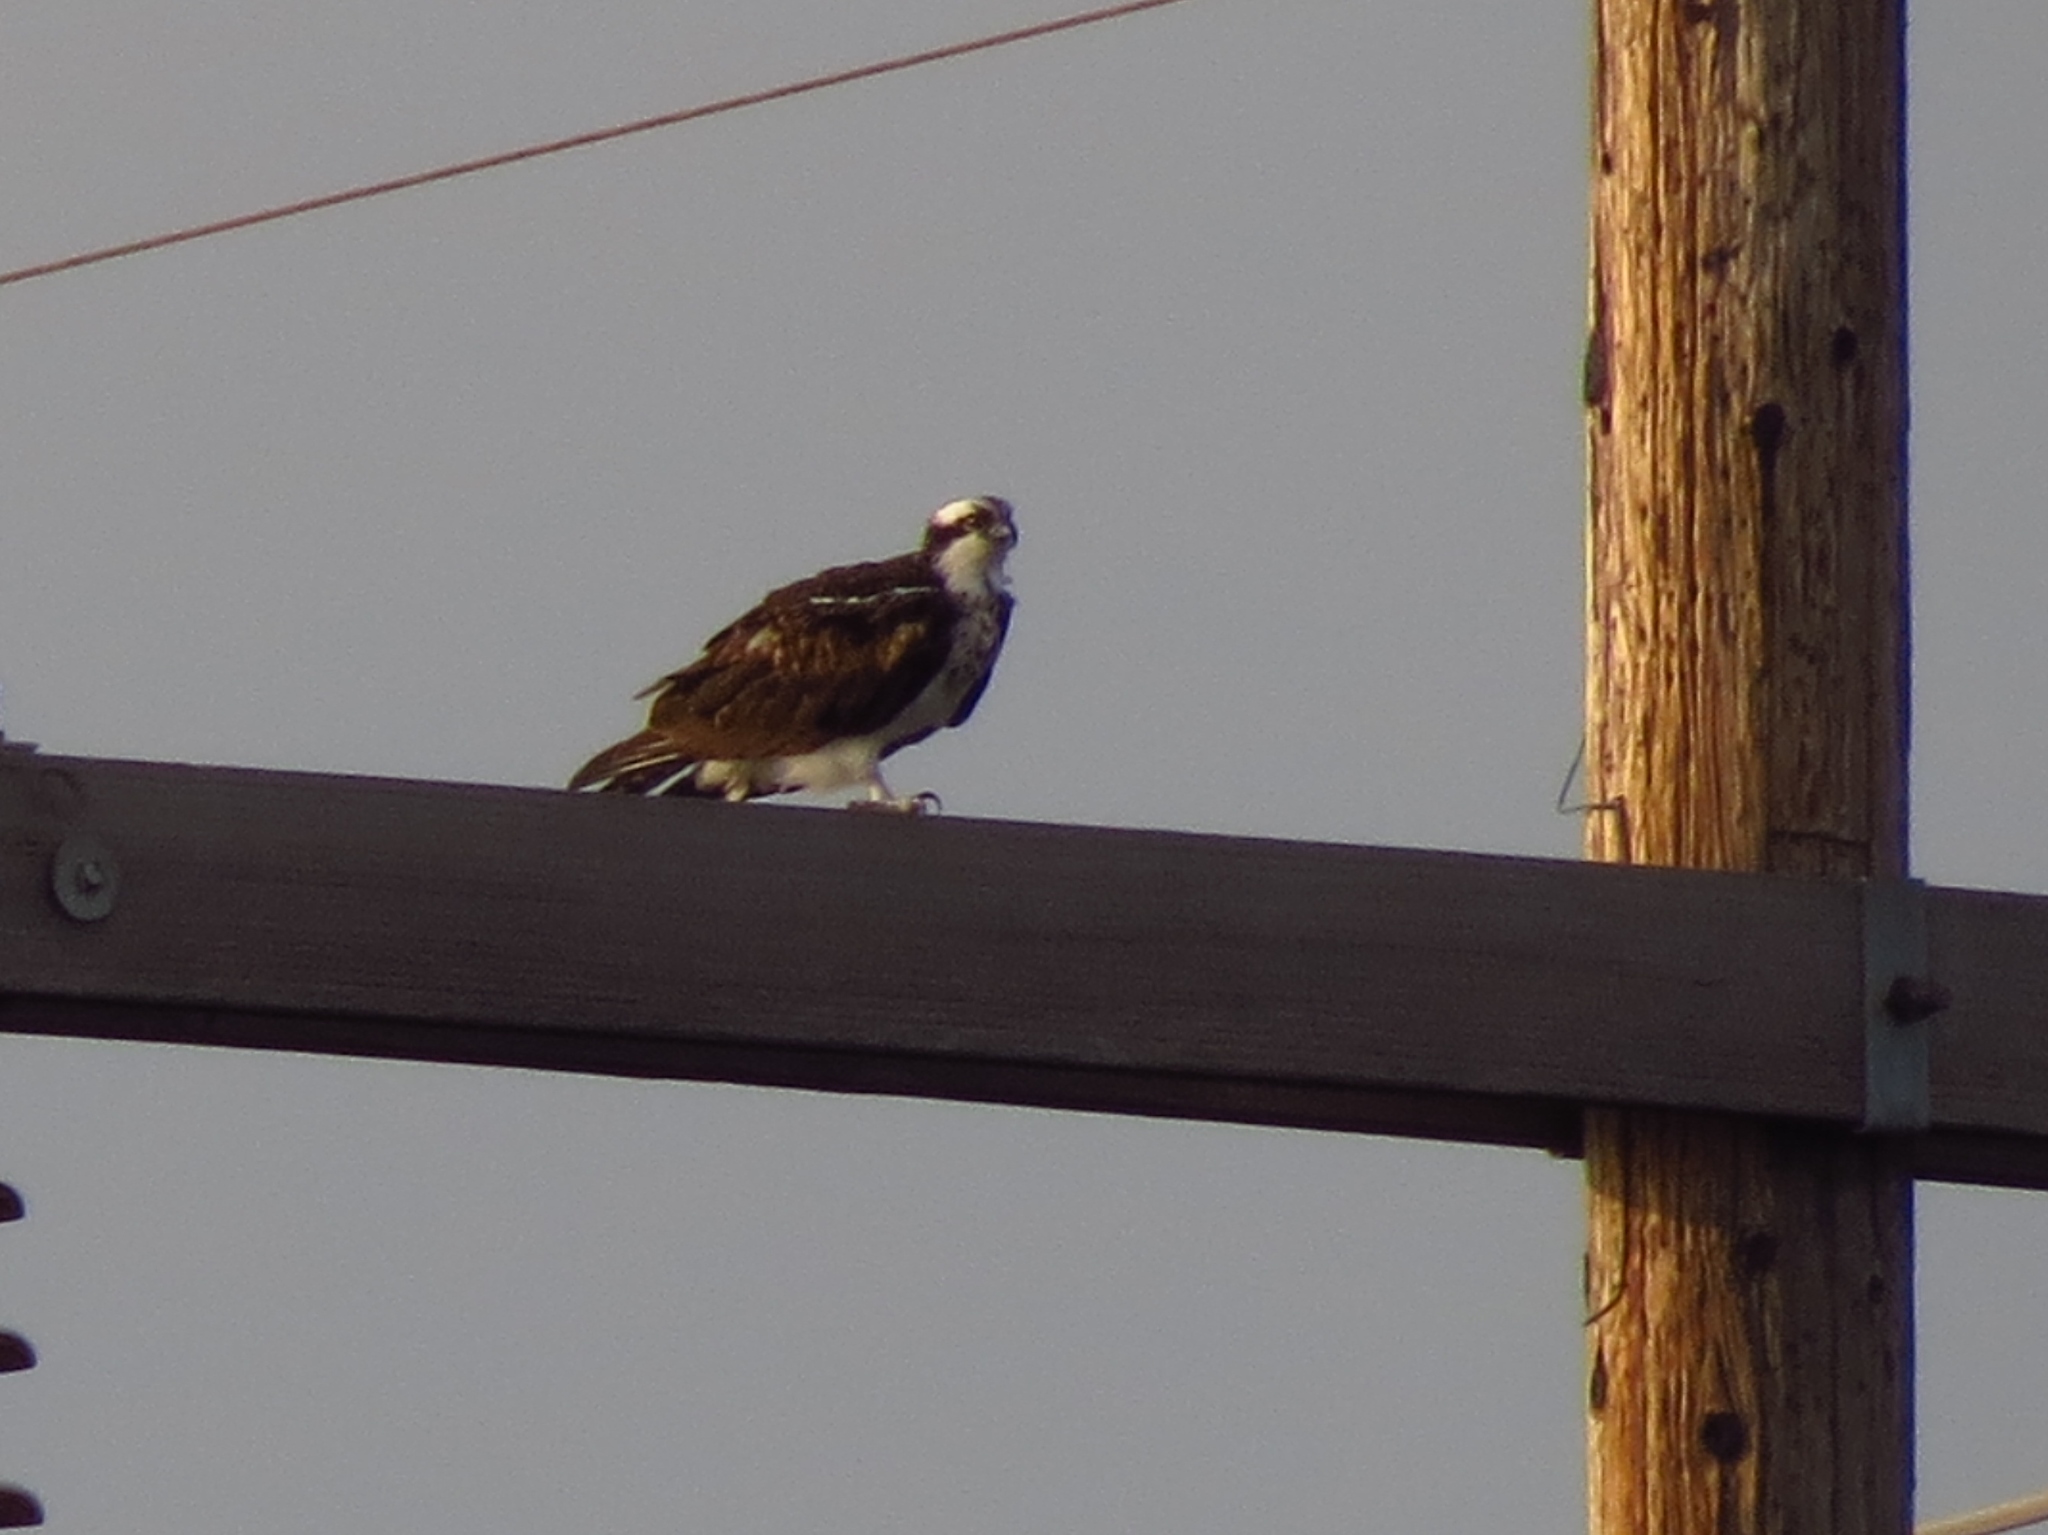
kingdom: Animalia
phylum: Chordata
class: Aves
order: Accipitriformes
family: Pandionidae
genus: Pandion
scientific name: Pandion haliaetus
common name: Osprey
